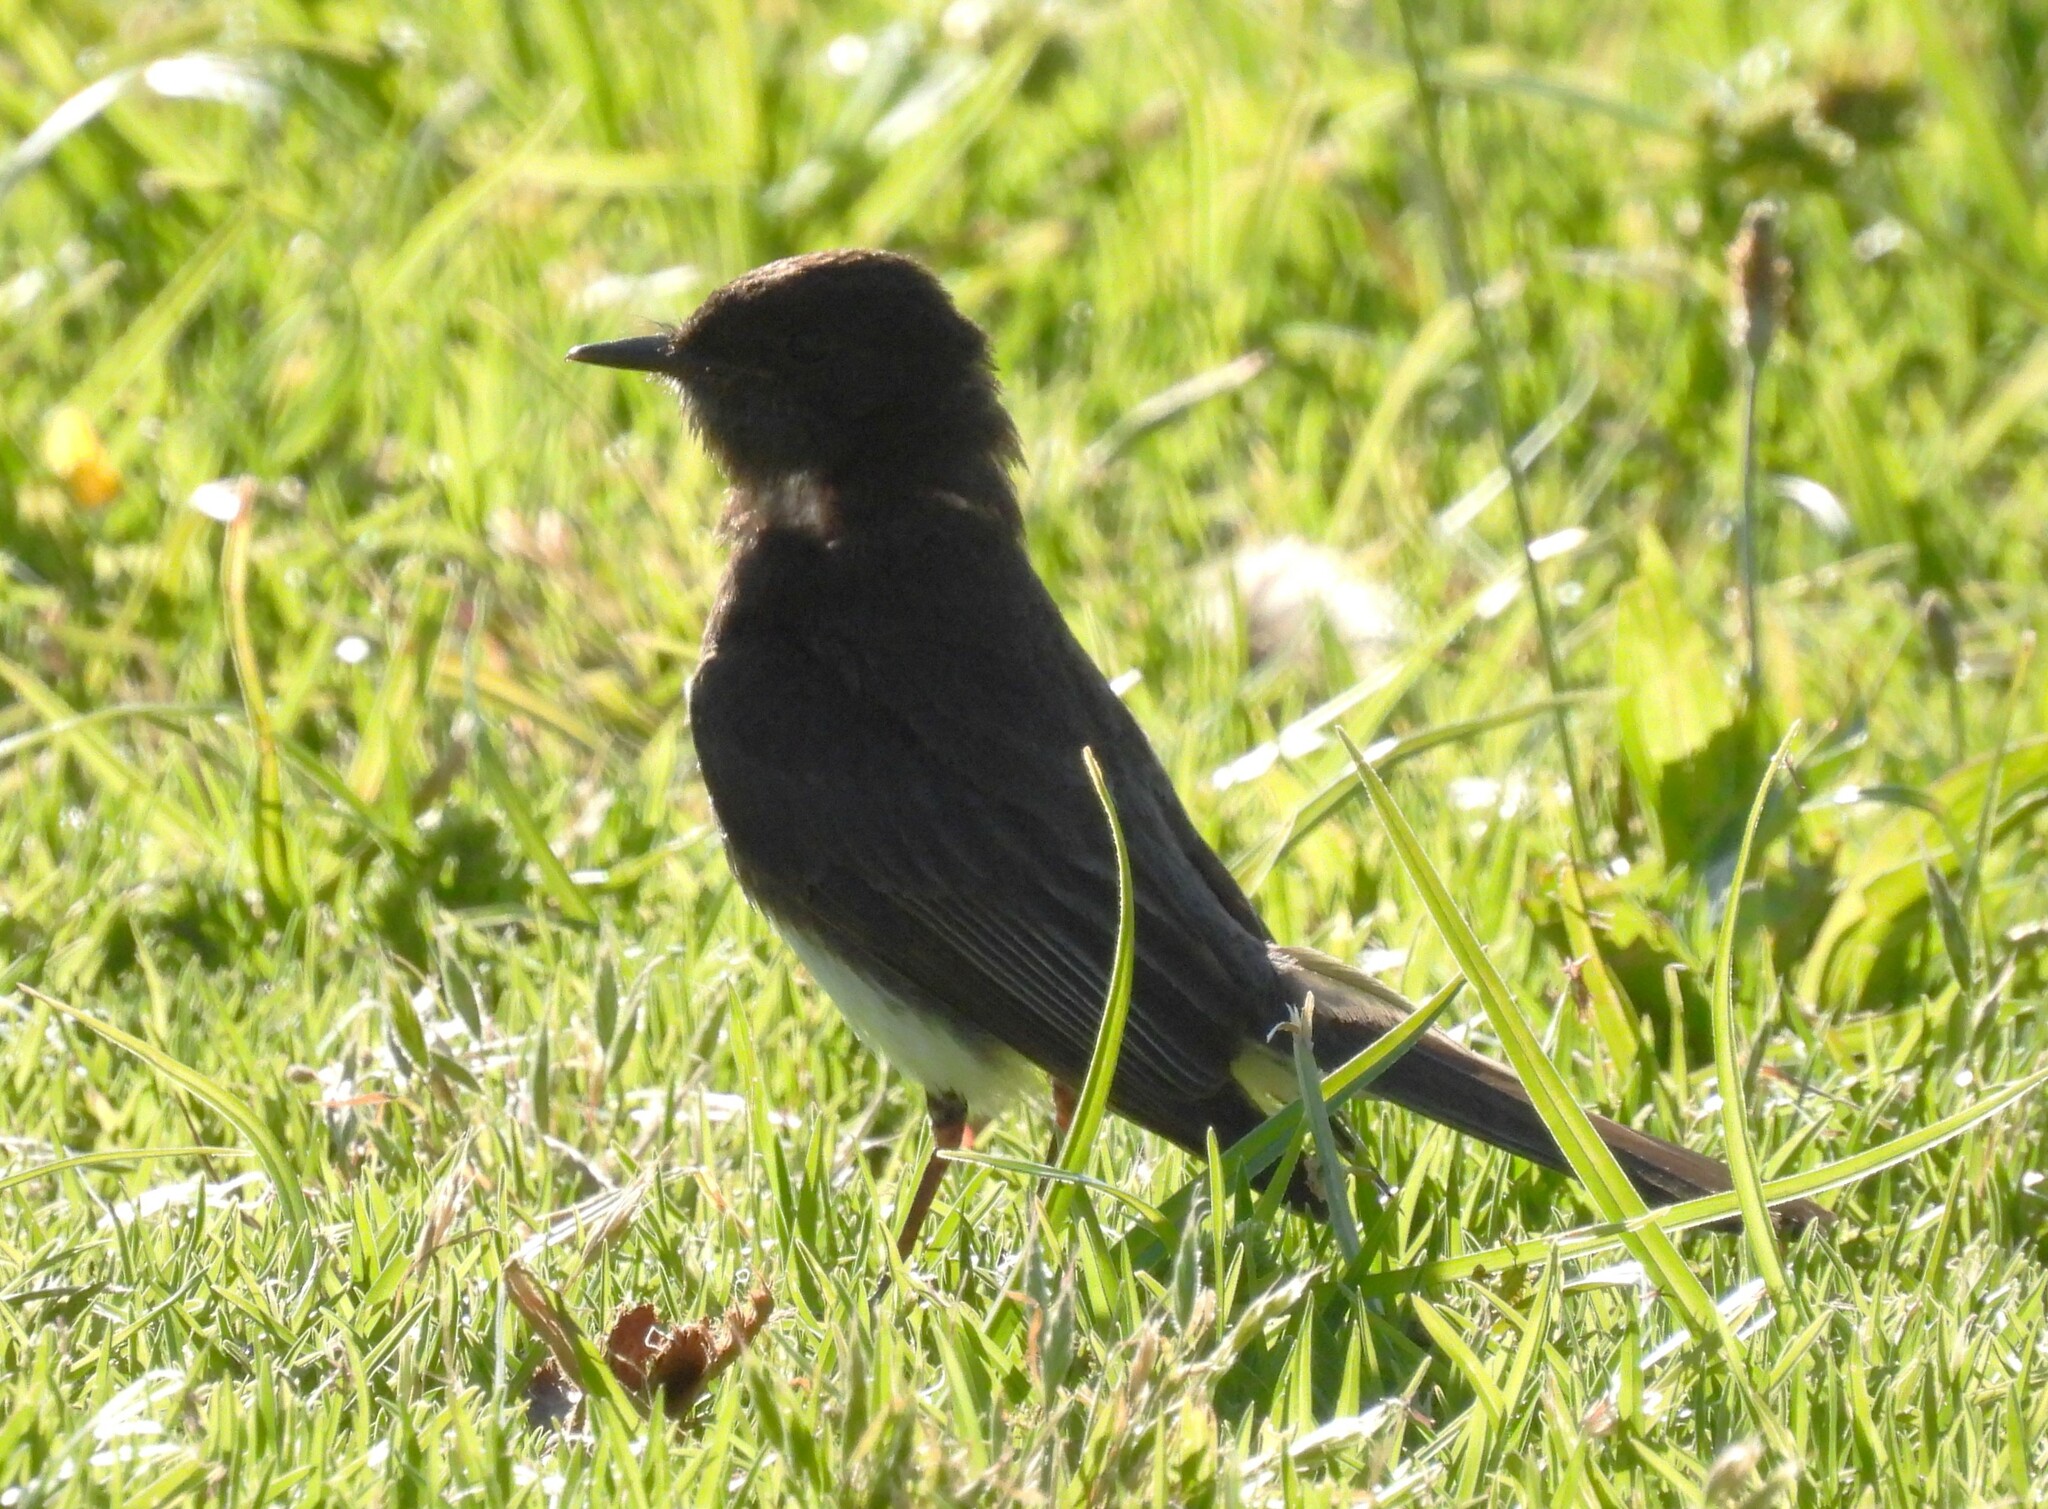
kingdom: Animalia
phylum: Chordata
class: Aves
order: Passeriformes
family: Tyrannidae
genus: Sayornis
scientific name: Sayornis nigricans
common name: Black phoebe
